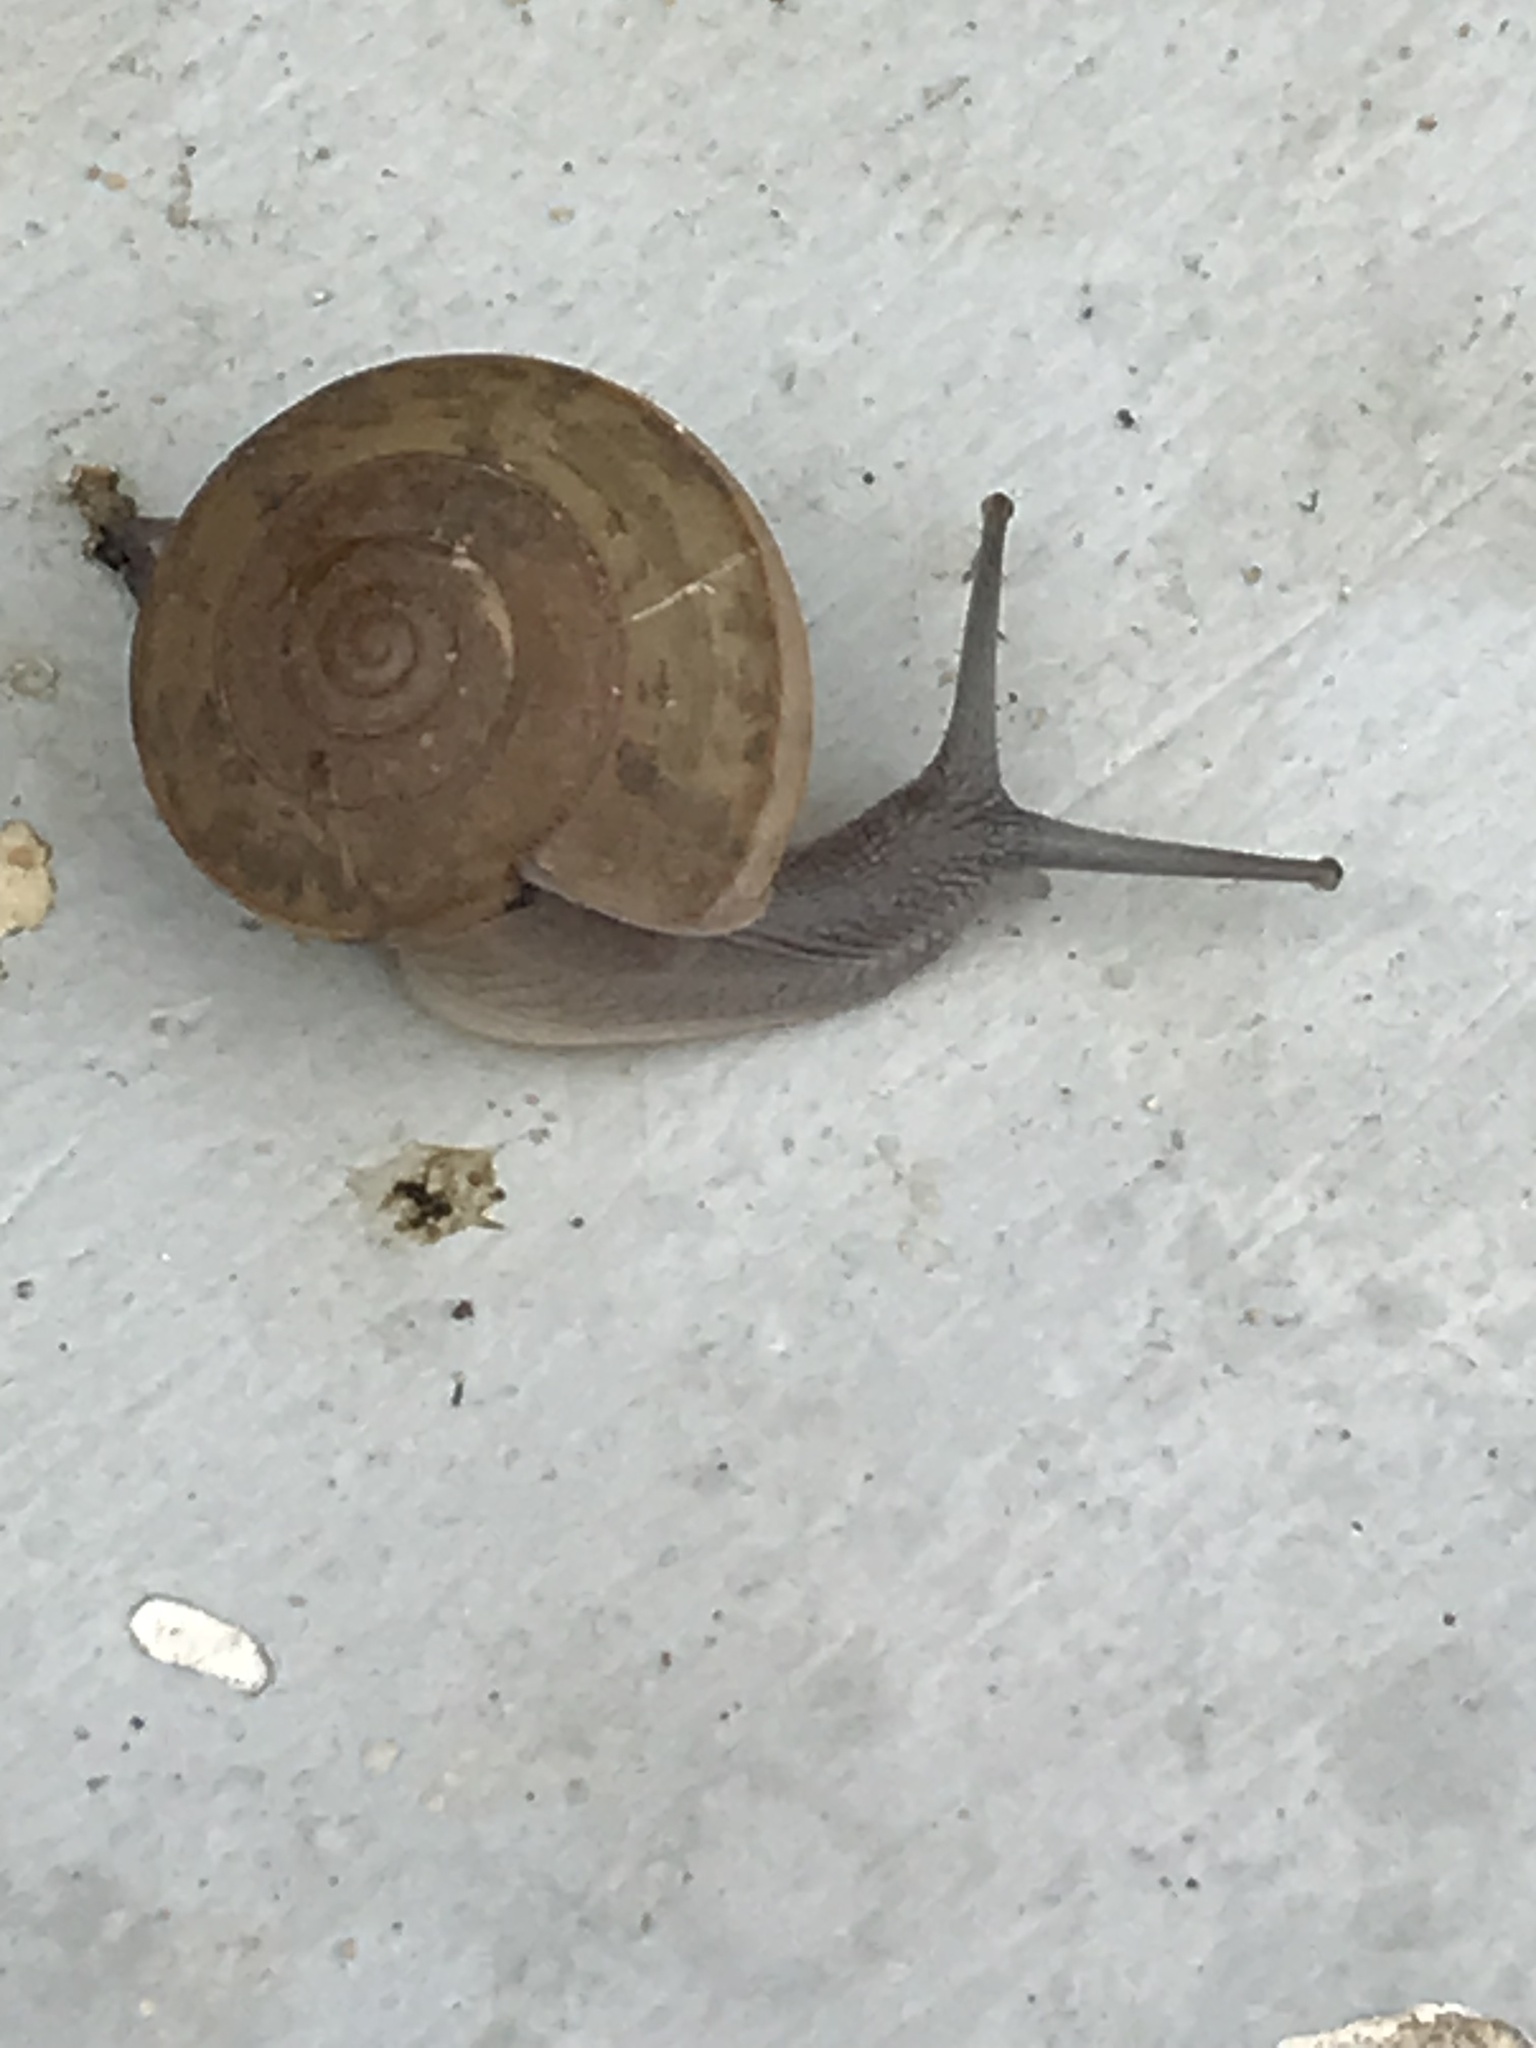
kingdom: Animalia
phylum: Mollusca
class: Gastropoda
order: Stylommatophora
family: Ariophantidae
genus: Sarika
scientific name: Sarika siamensis
